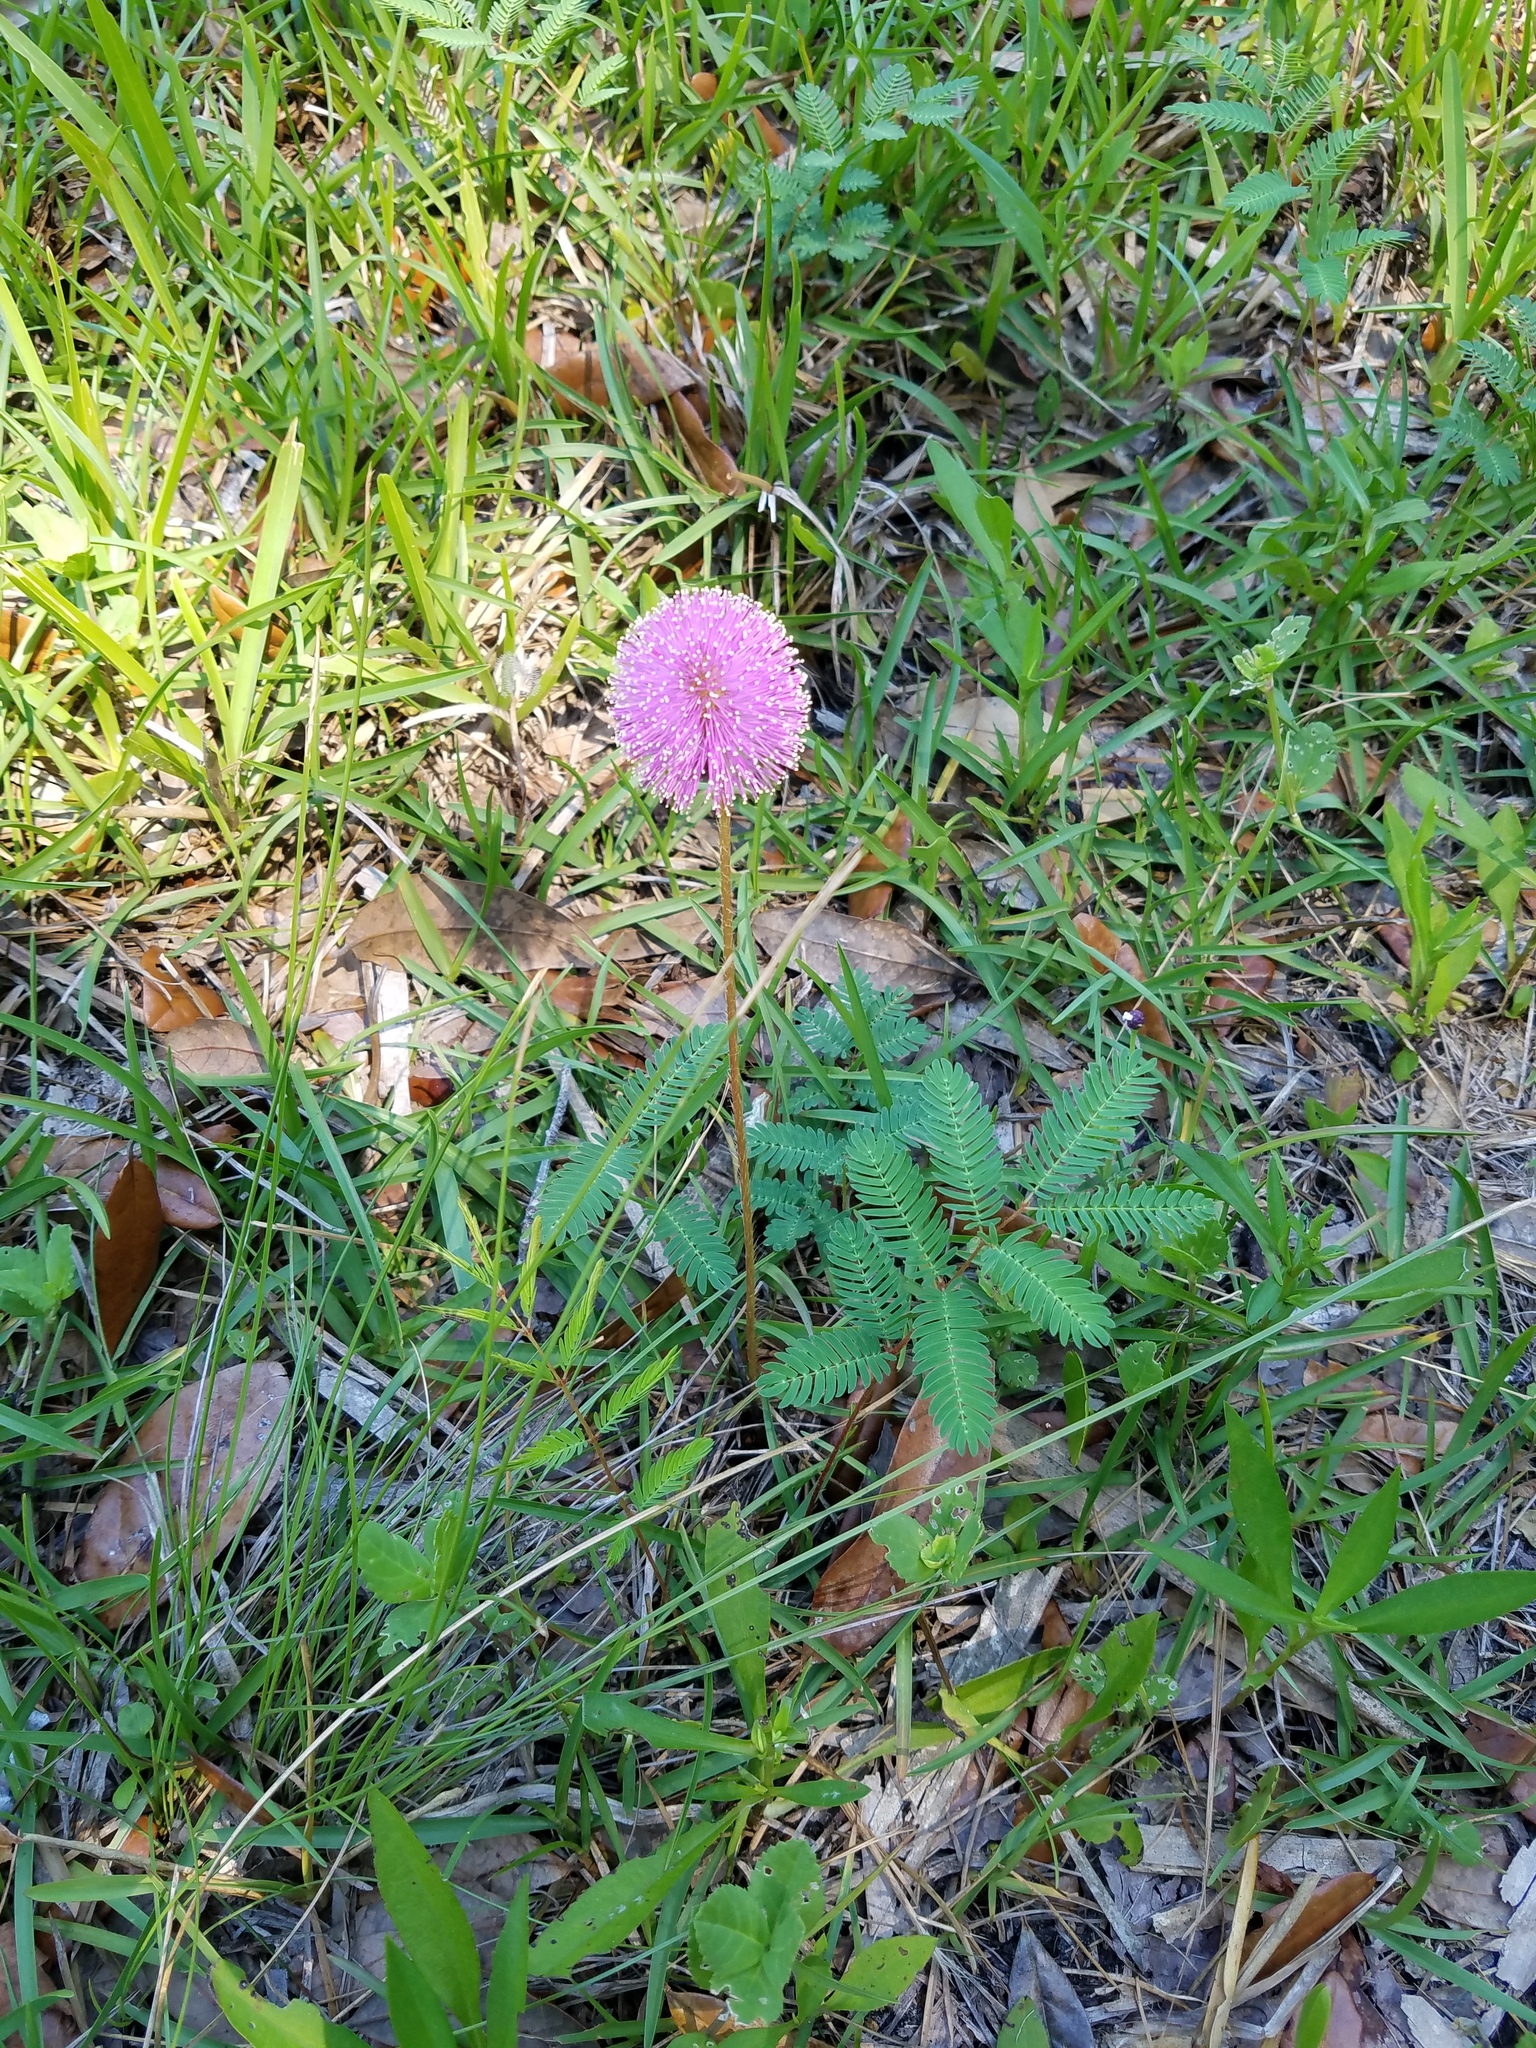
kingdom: Plantae
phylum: Tracheophyta
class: Magnoliopsida
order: Fabales
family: Fabaceae
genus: Mimosa
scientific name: Mimosa strigillosa
